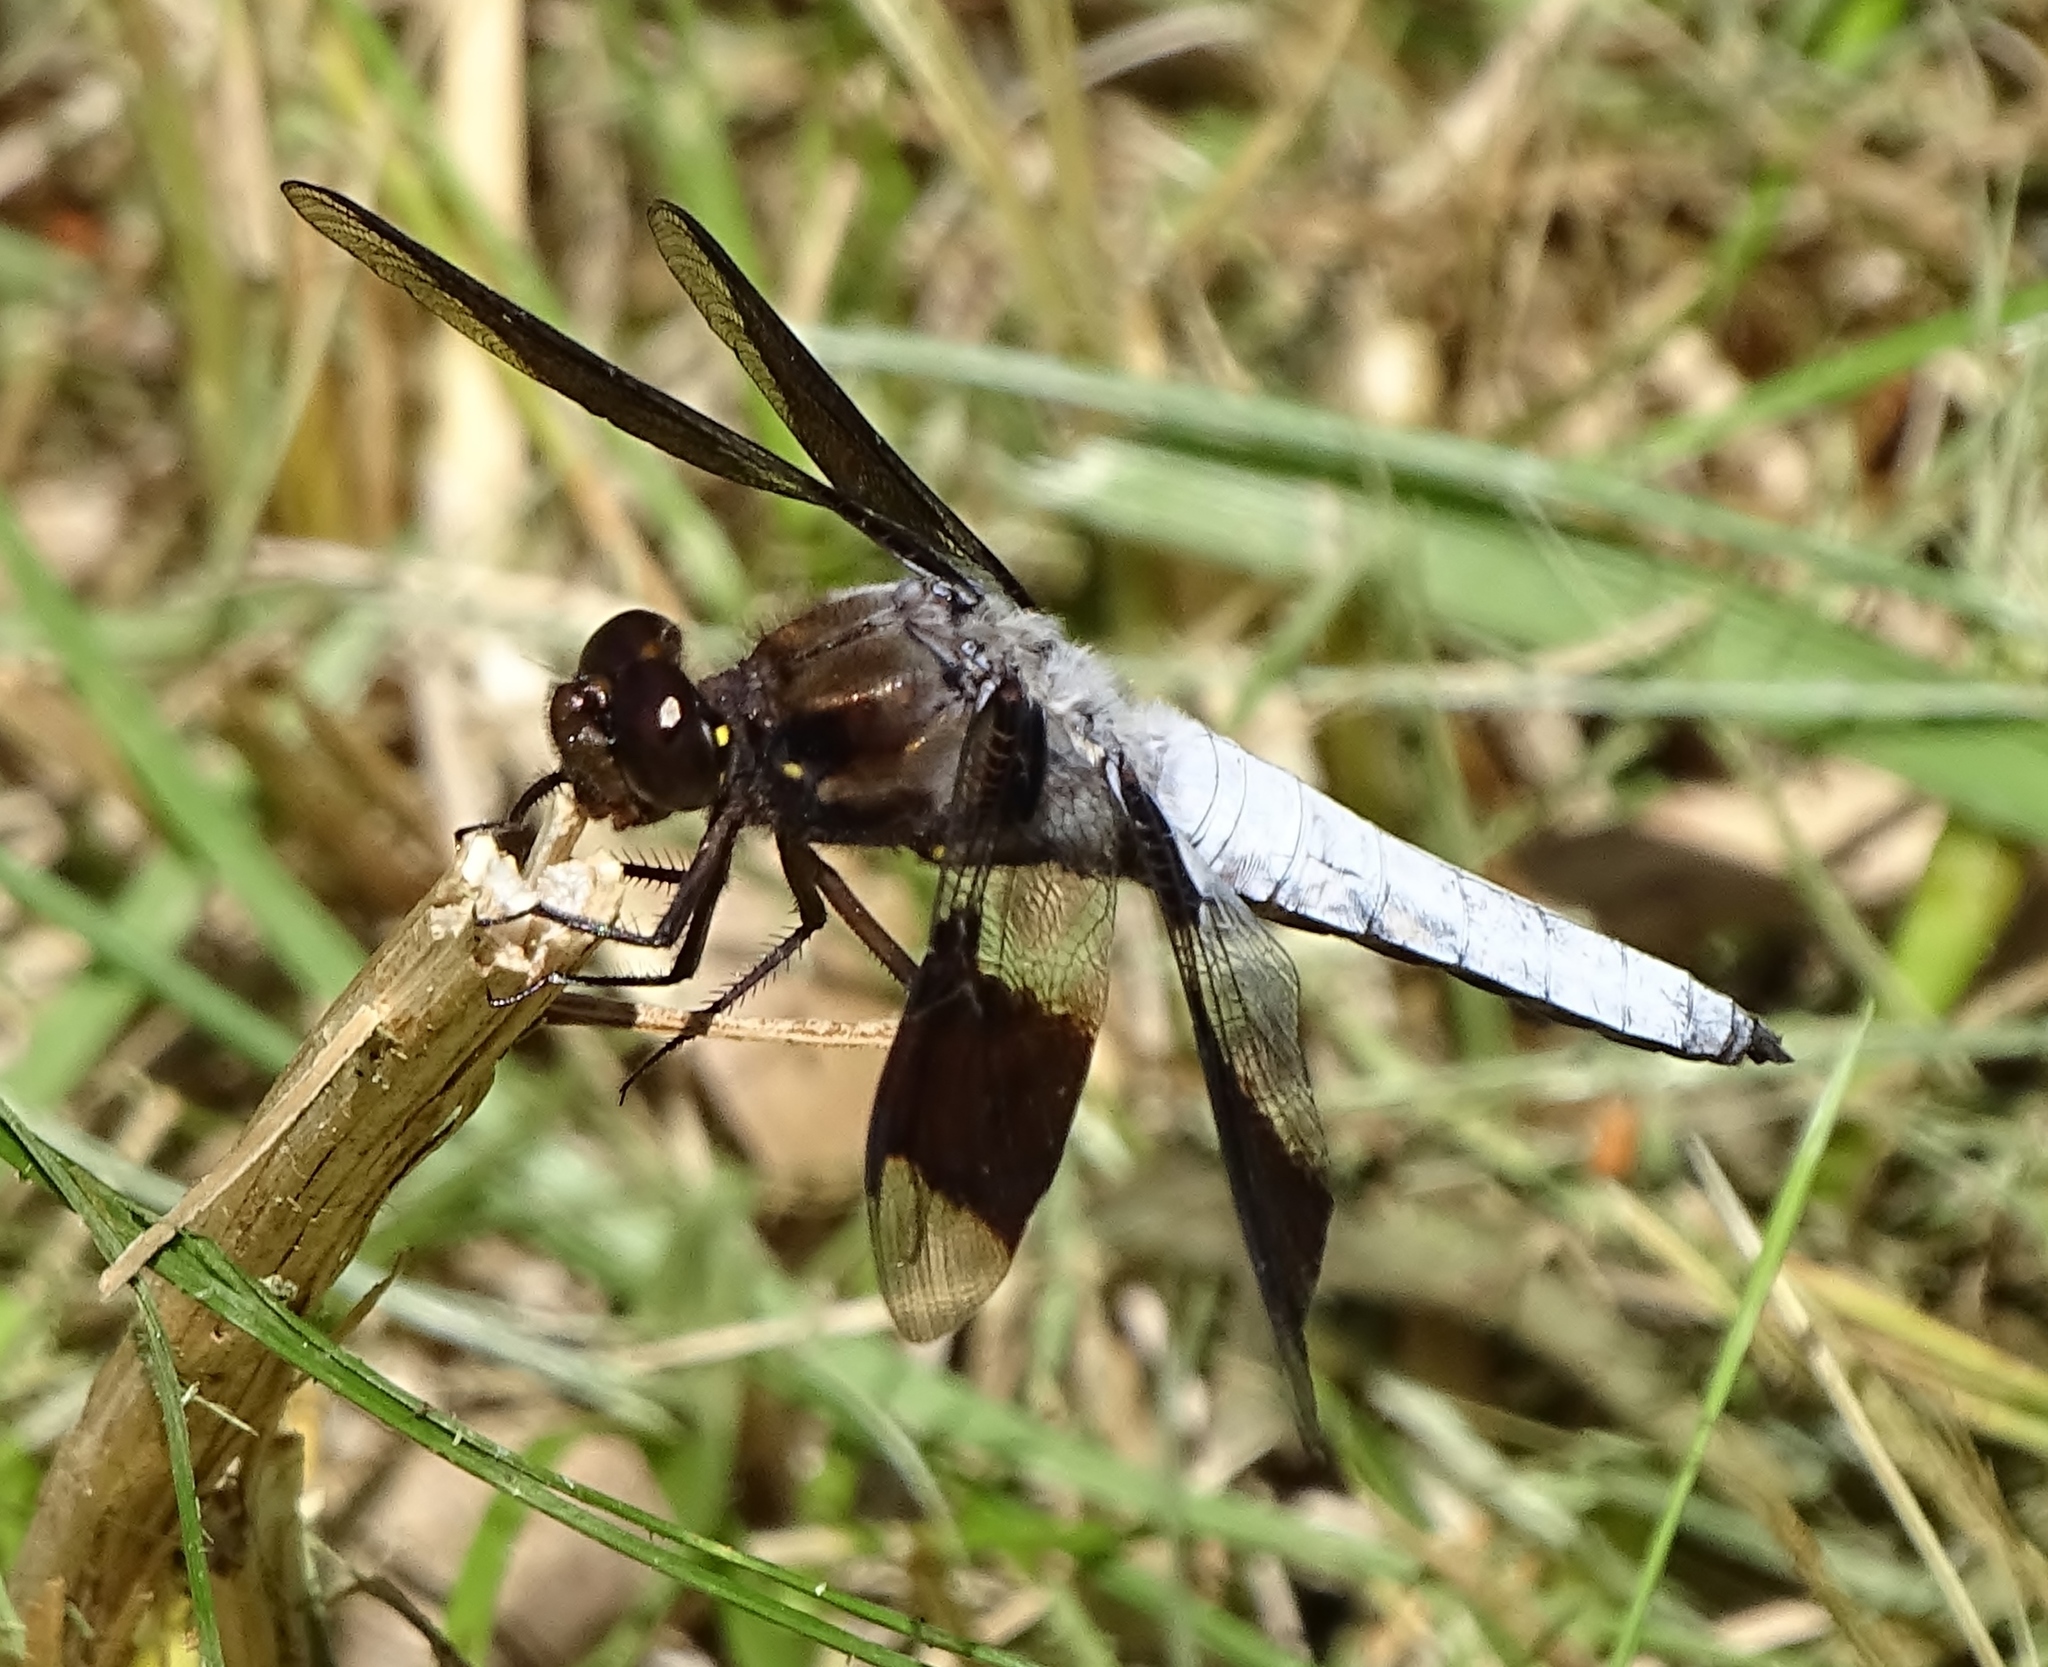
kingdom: Animalia
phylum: Arthropoda
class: Insecta
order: Odonata
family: Libellulidae
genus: Plathemis
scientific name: Plathemis lydia
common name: Common whitetail
